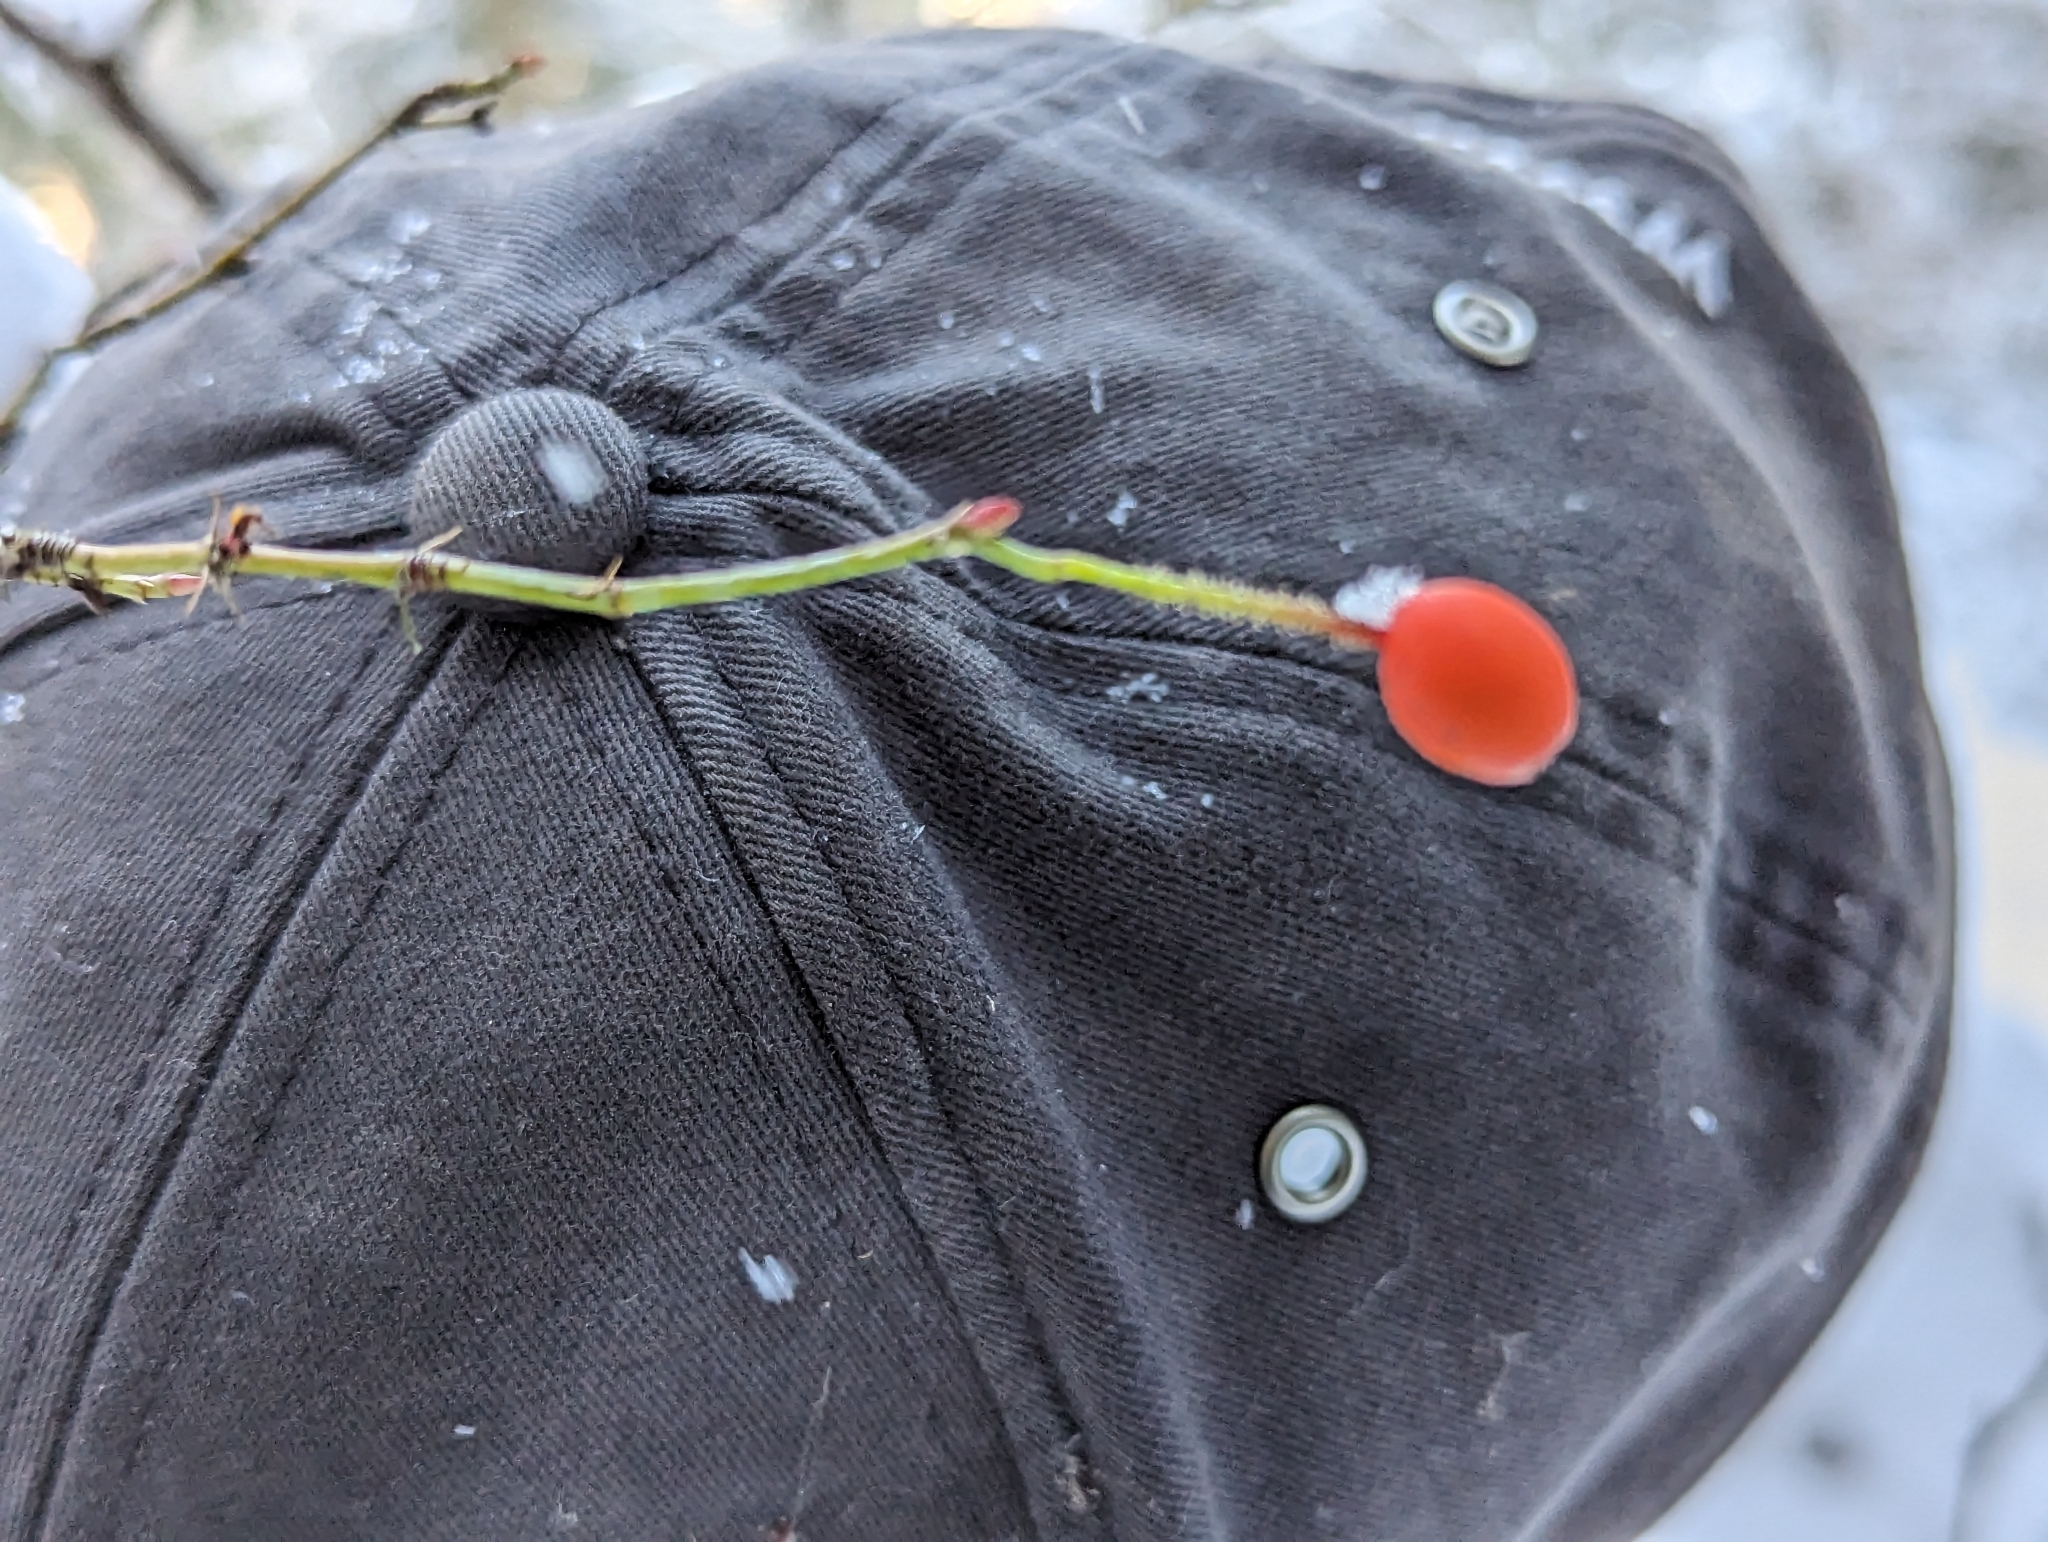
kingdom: Plantae
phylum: Tracheophyta
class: Magnoliopsida
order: Rosales
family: Rosaceae
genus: Rosa
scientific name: Rosa gymnocarpa
